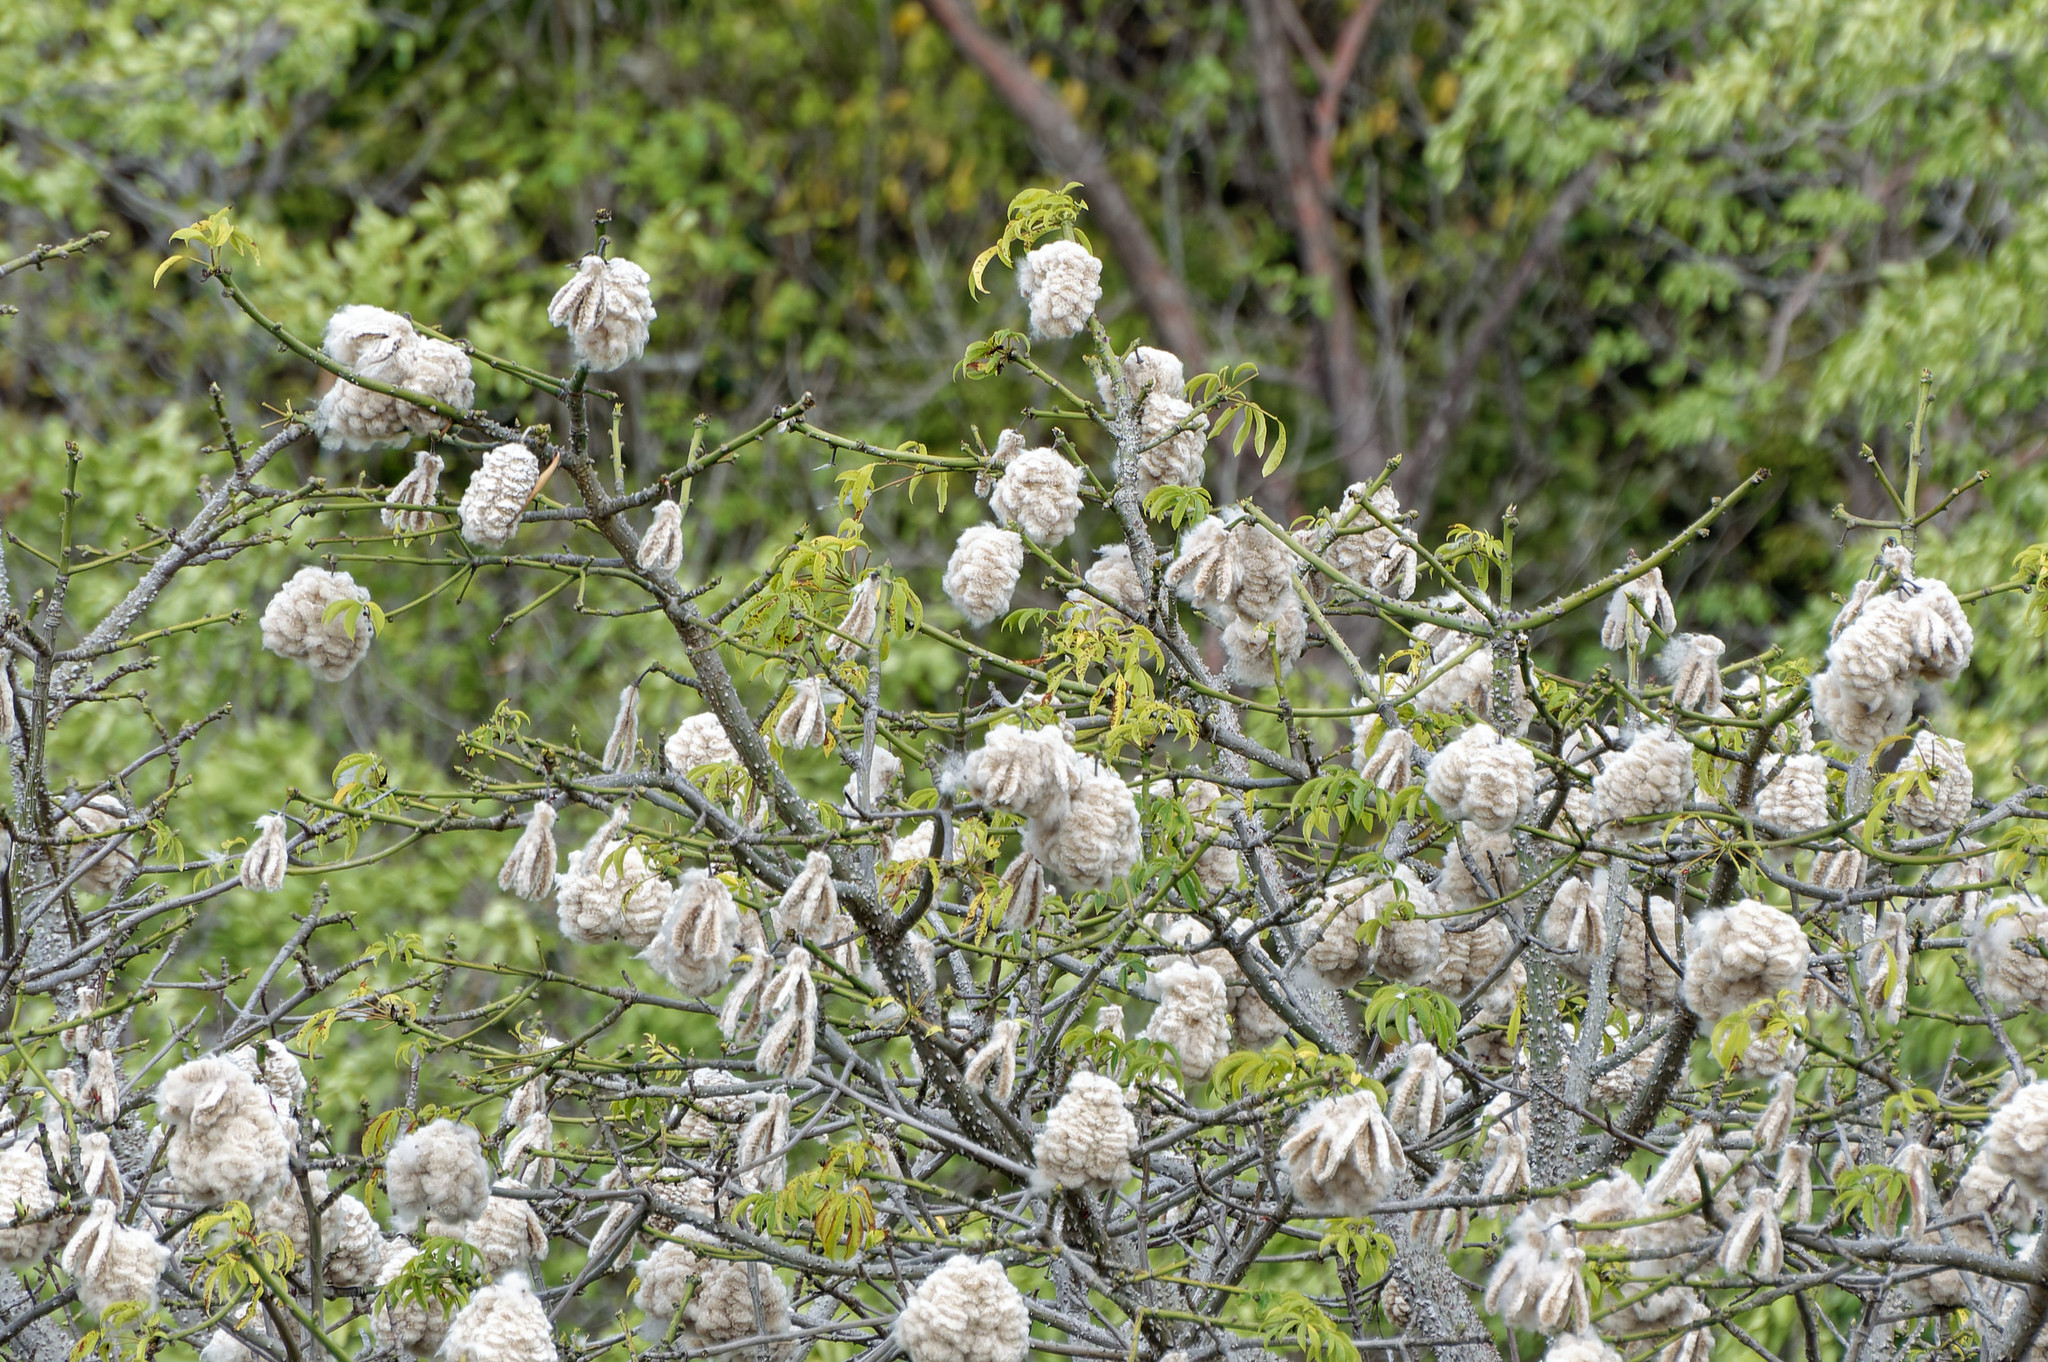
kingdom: Plantae
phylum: Tracheophyta
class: Magnoliopsida
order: Malvales
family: Malvaceae
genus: Ceiba
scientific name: Ceiba pentandra
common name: Kapok
